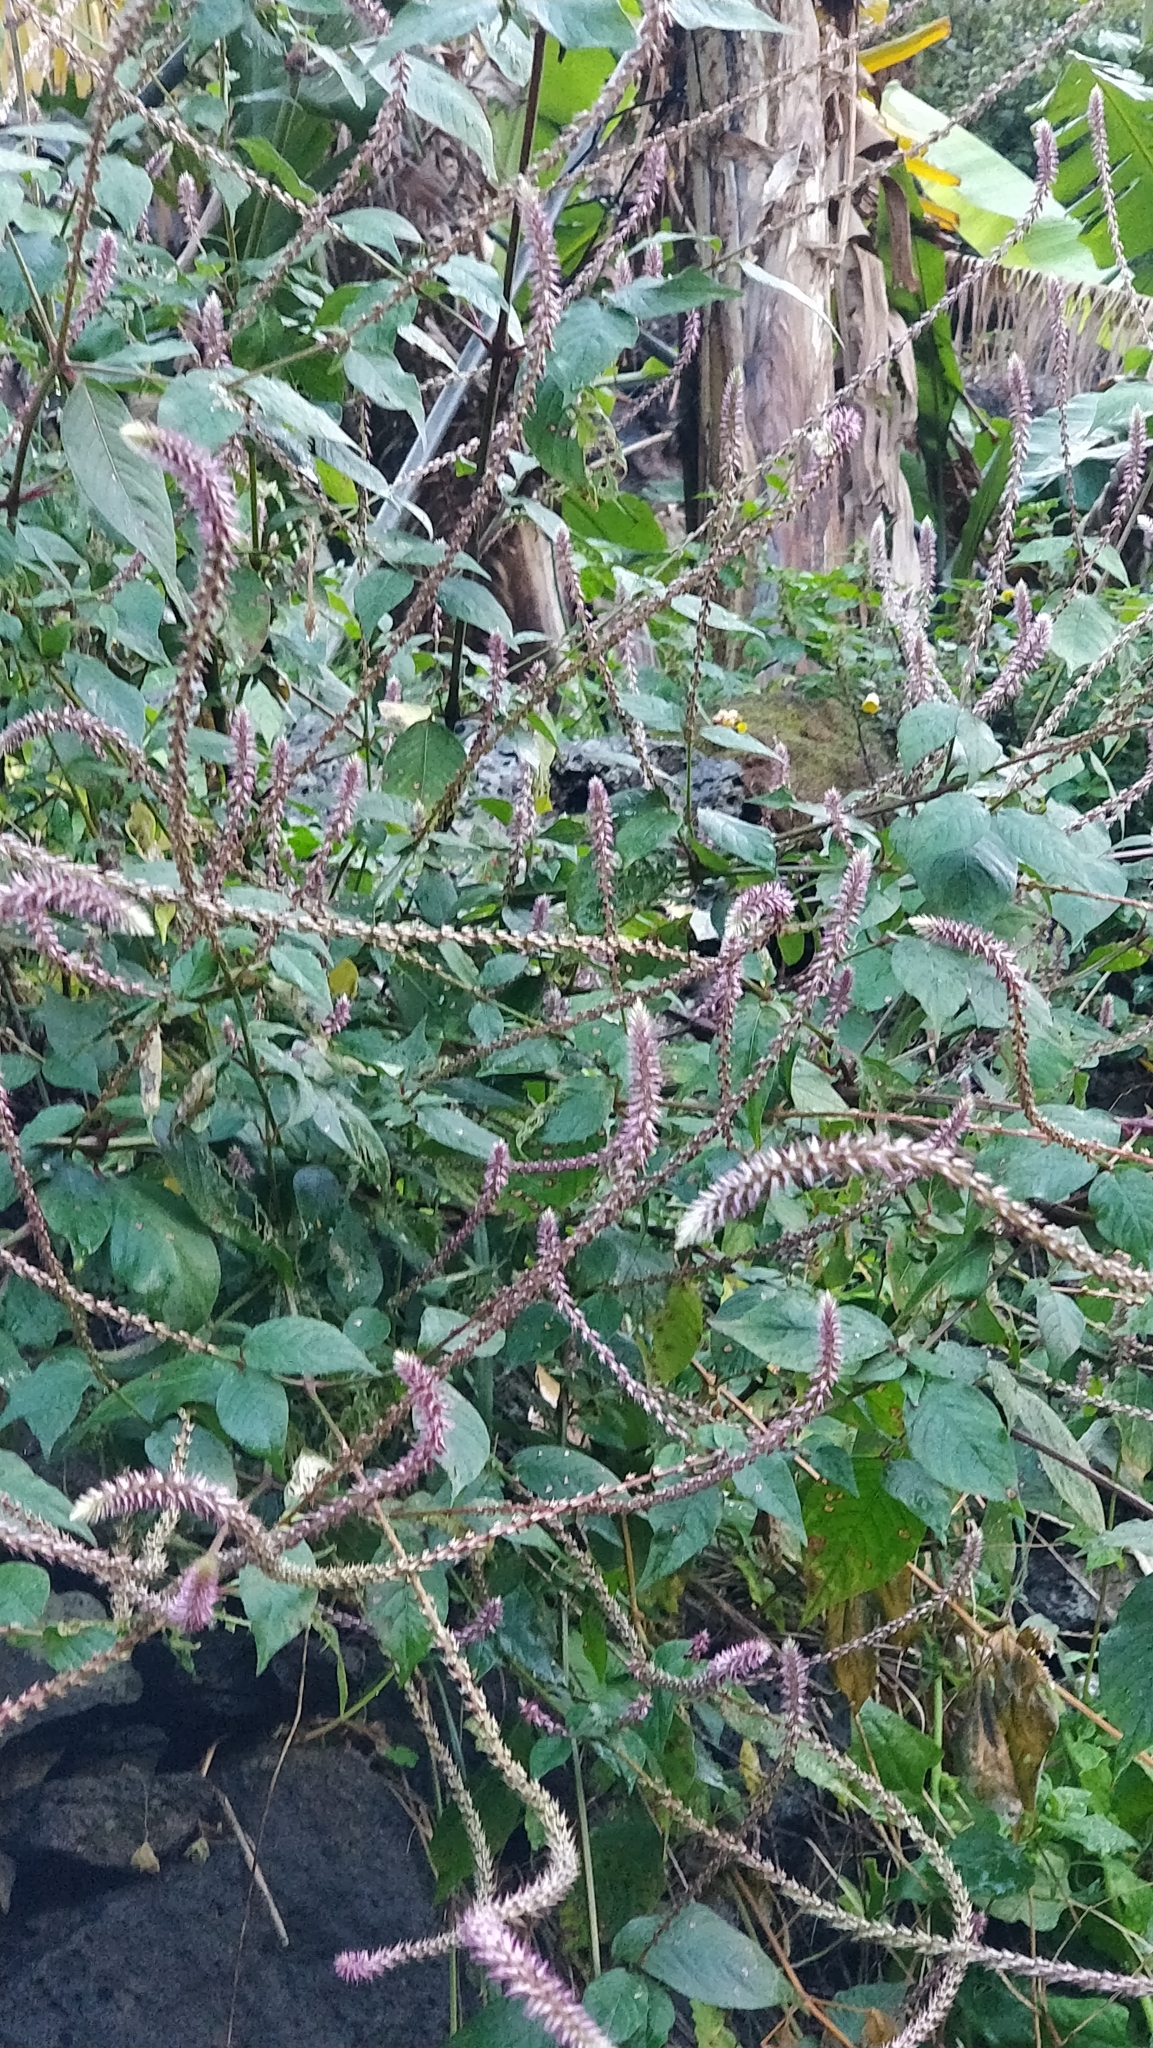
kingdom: Plantae
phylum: Tracheophyta
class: Magnoliopsida
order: Caryophyllales
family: Amaranthaceae
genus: Achyranthes
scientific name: Achyranthes aspera
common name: Devil's horsewhip
